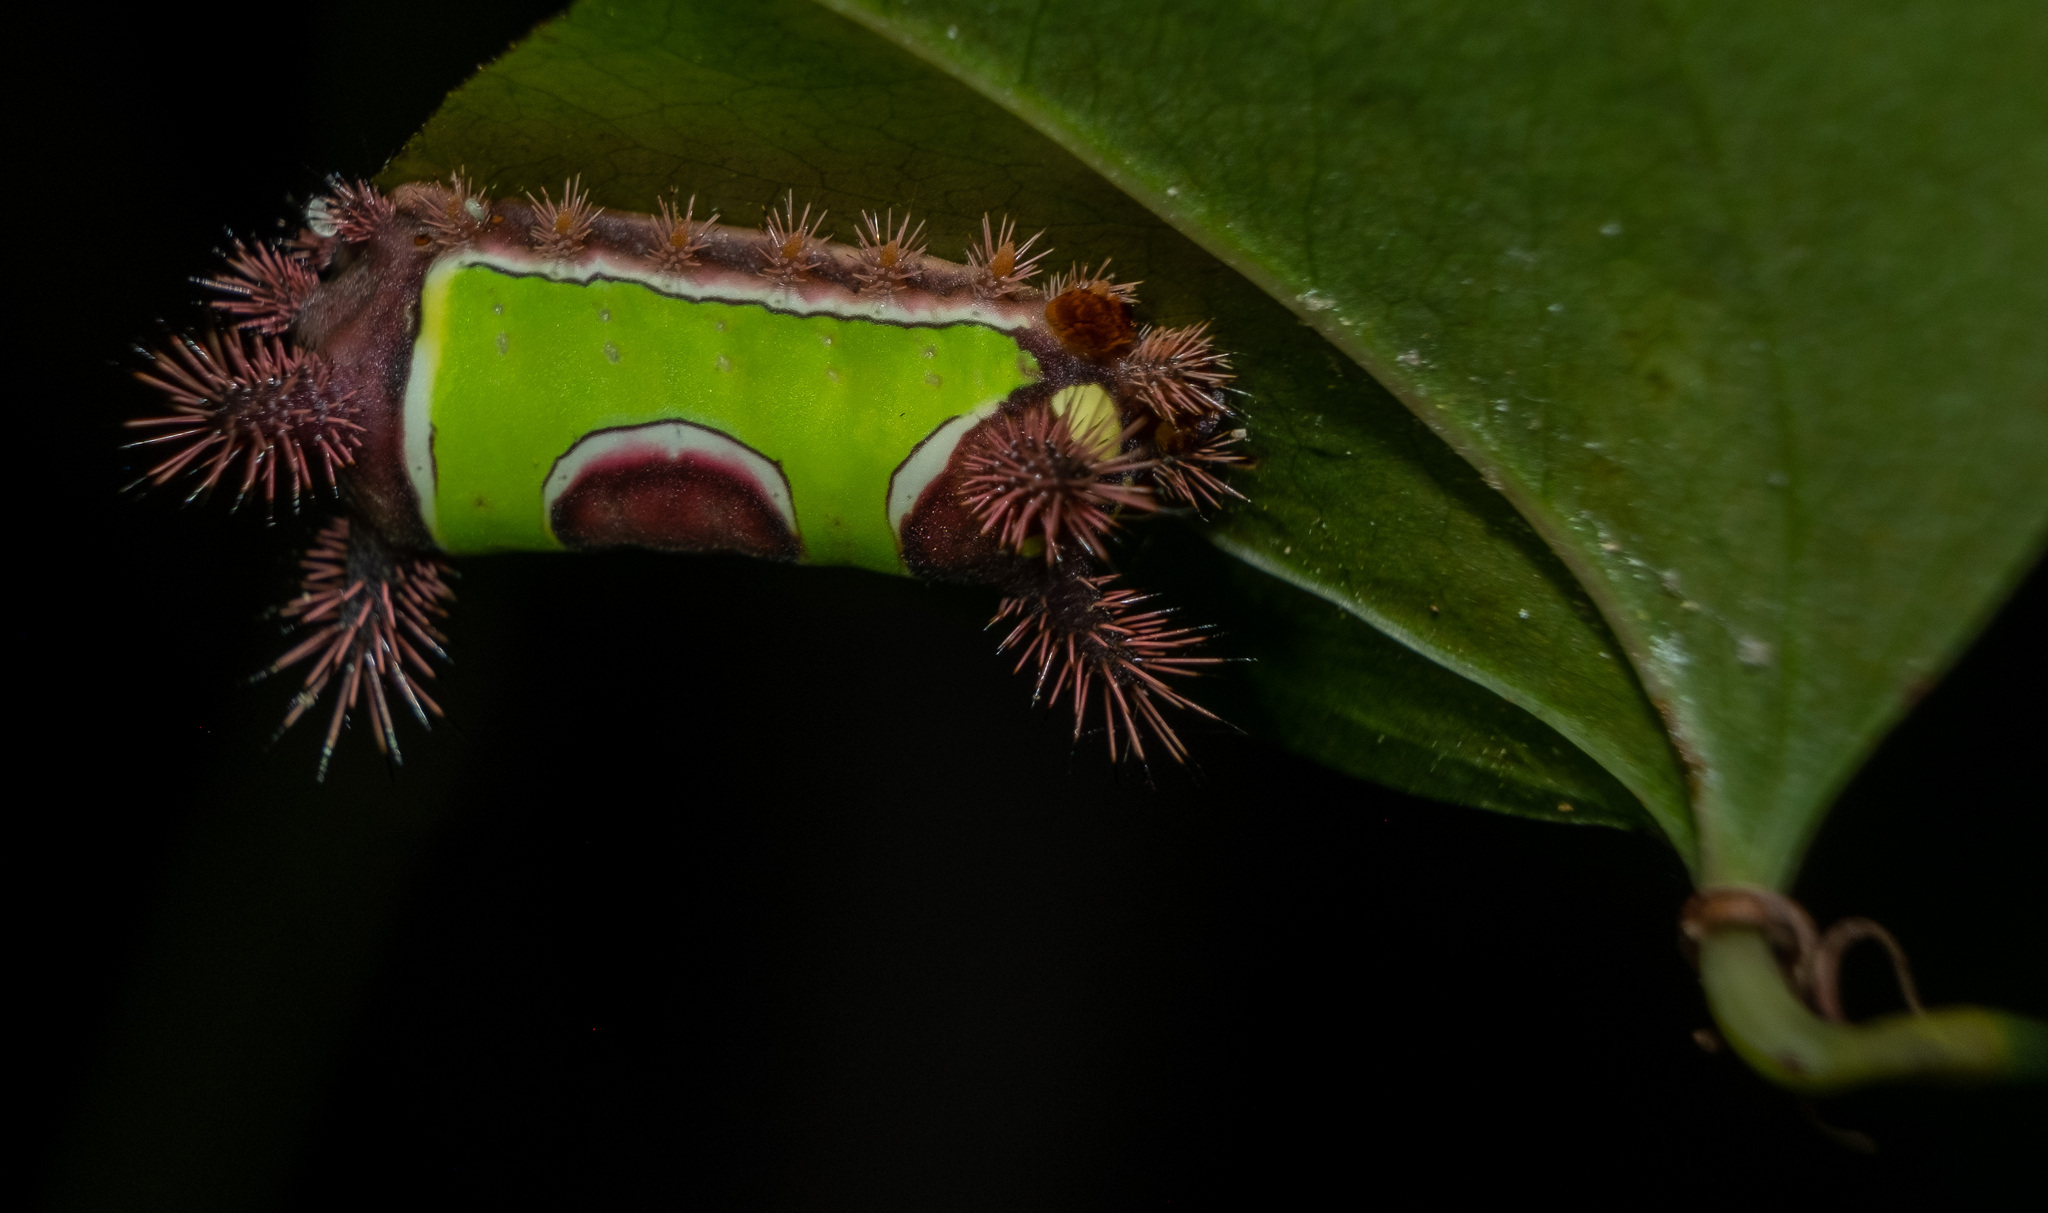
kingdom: Animalia
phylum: Arthropoda
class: Insecta
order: Lepidoptera
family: Limacodidae
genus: Acharia
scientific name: Acharia stimulea
